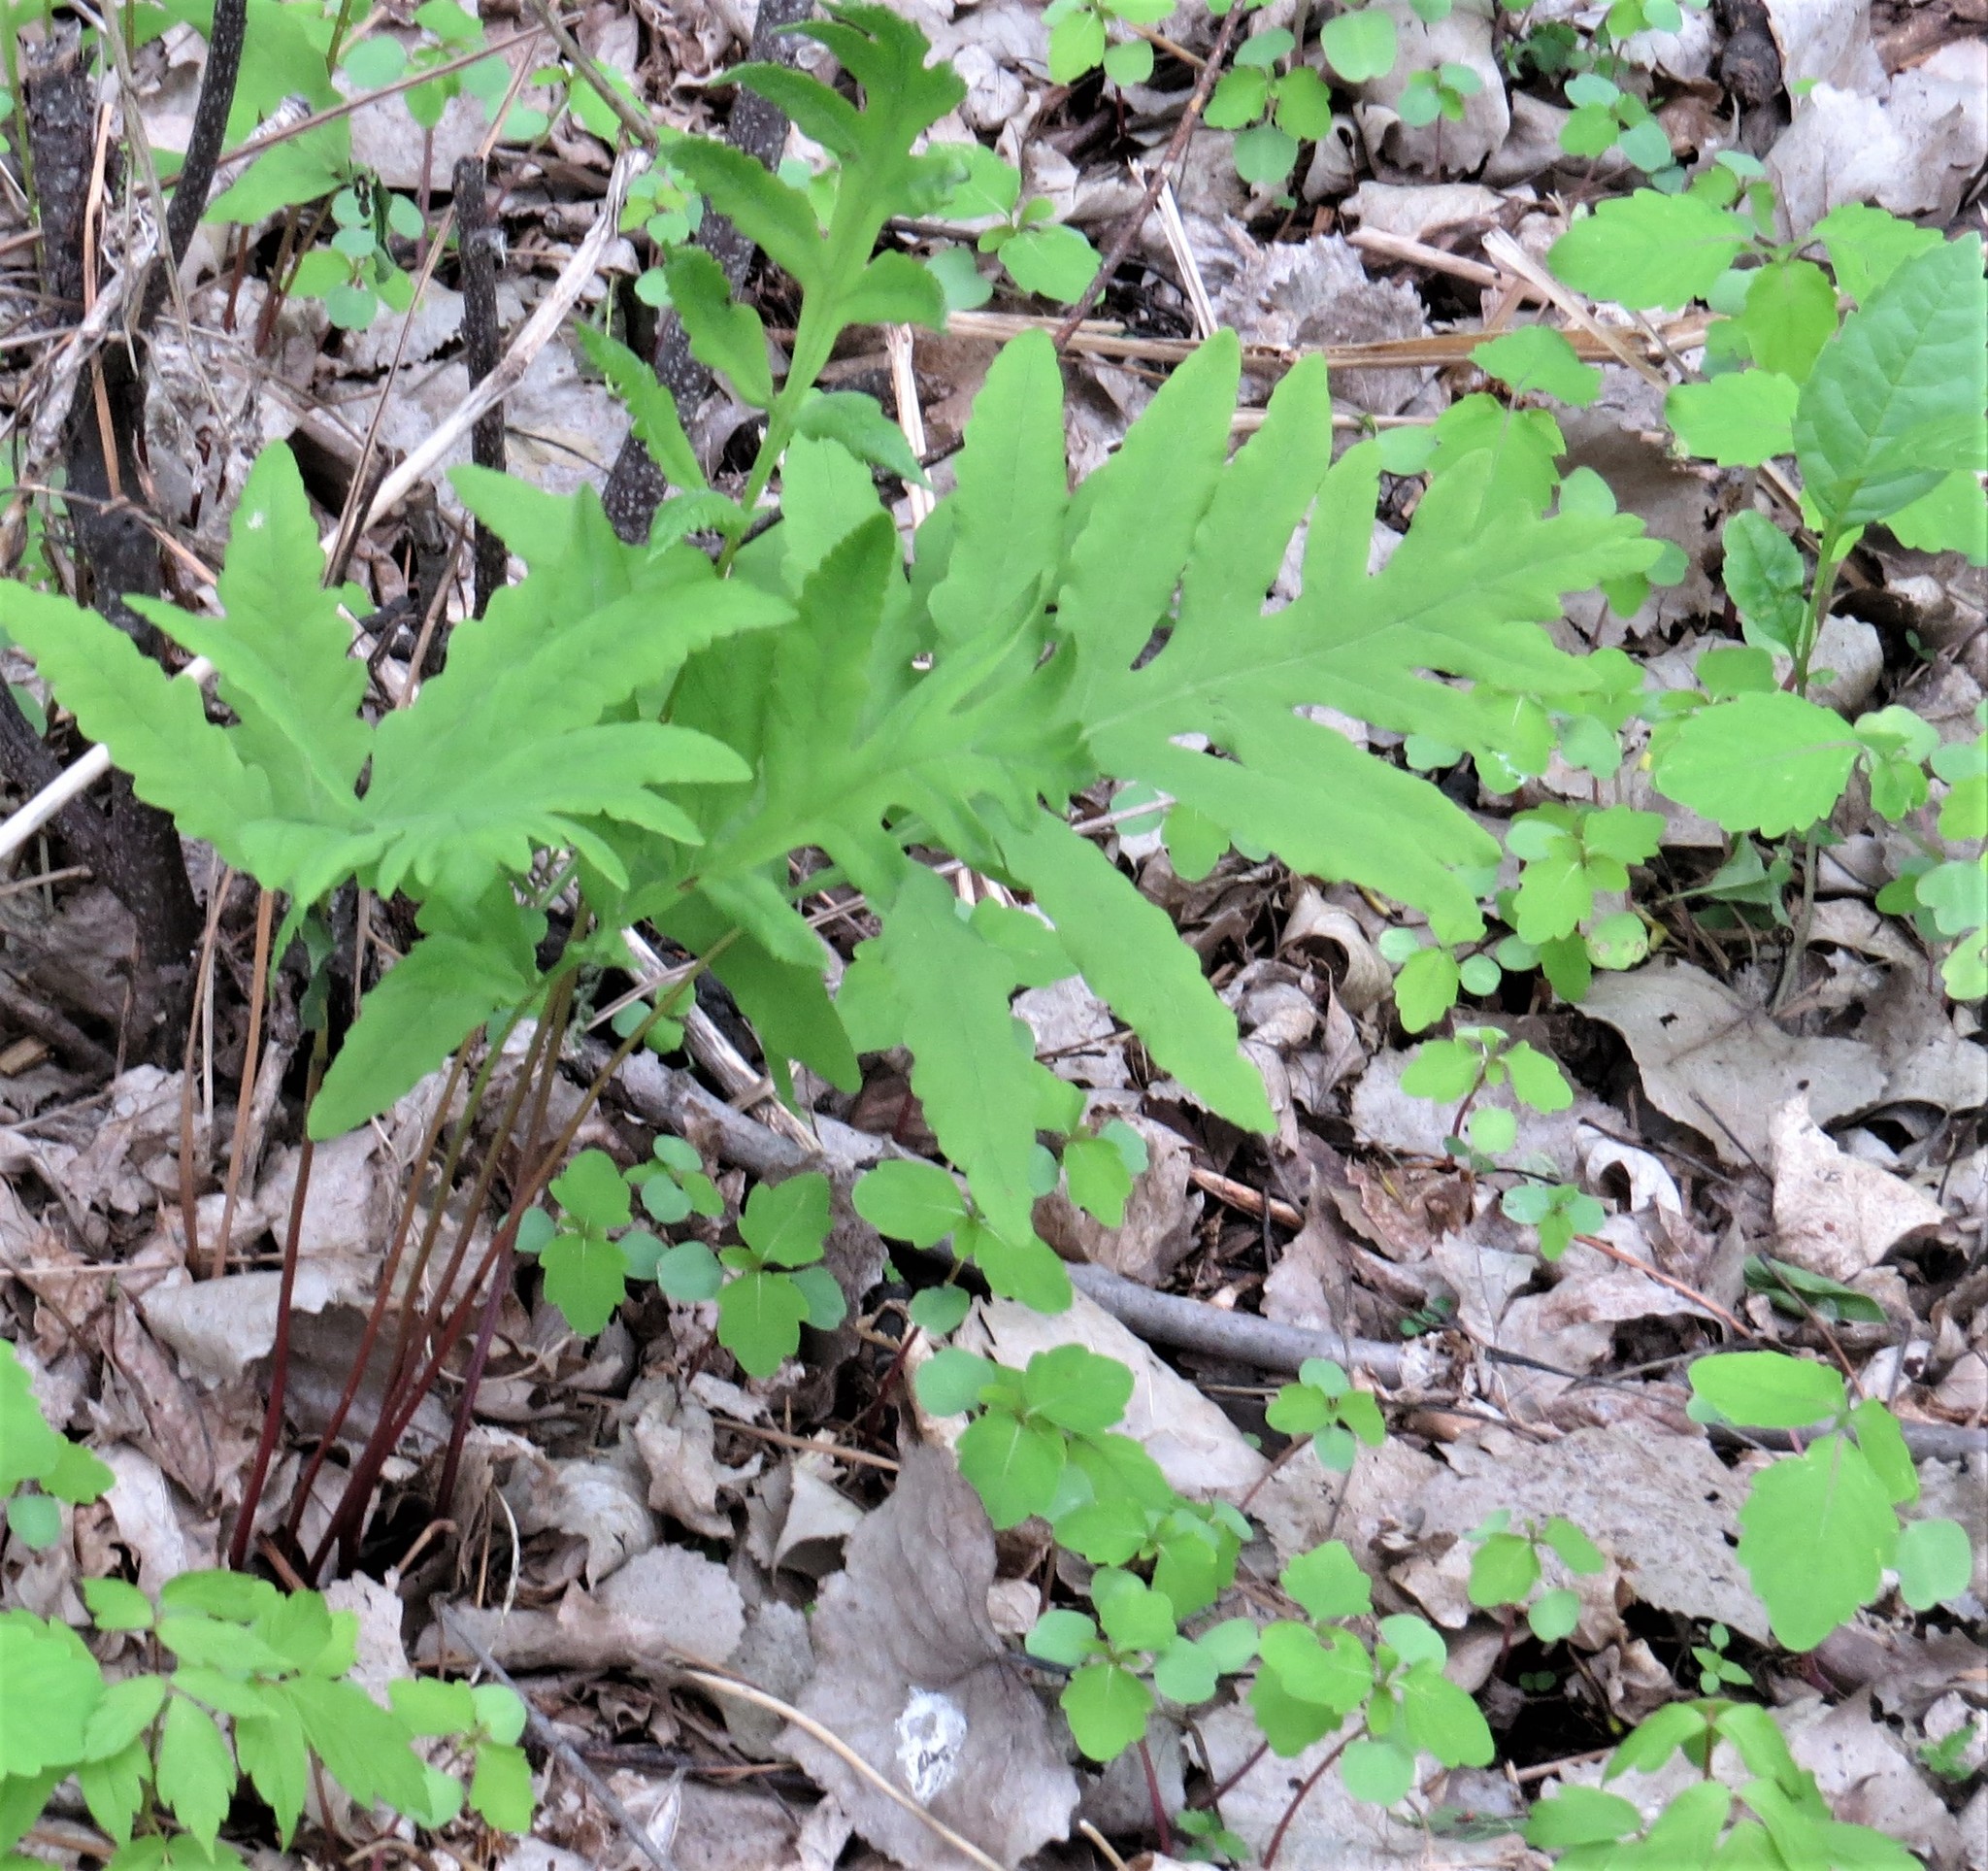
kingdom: Plantae
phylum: Tracheophyta
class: Polypodiopsida
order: Polypodiales
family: Onocleaceae
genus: Onoclea
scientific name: Onoclea sensibilis
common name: Sensitive fern
